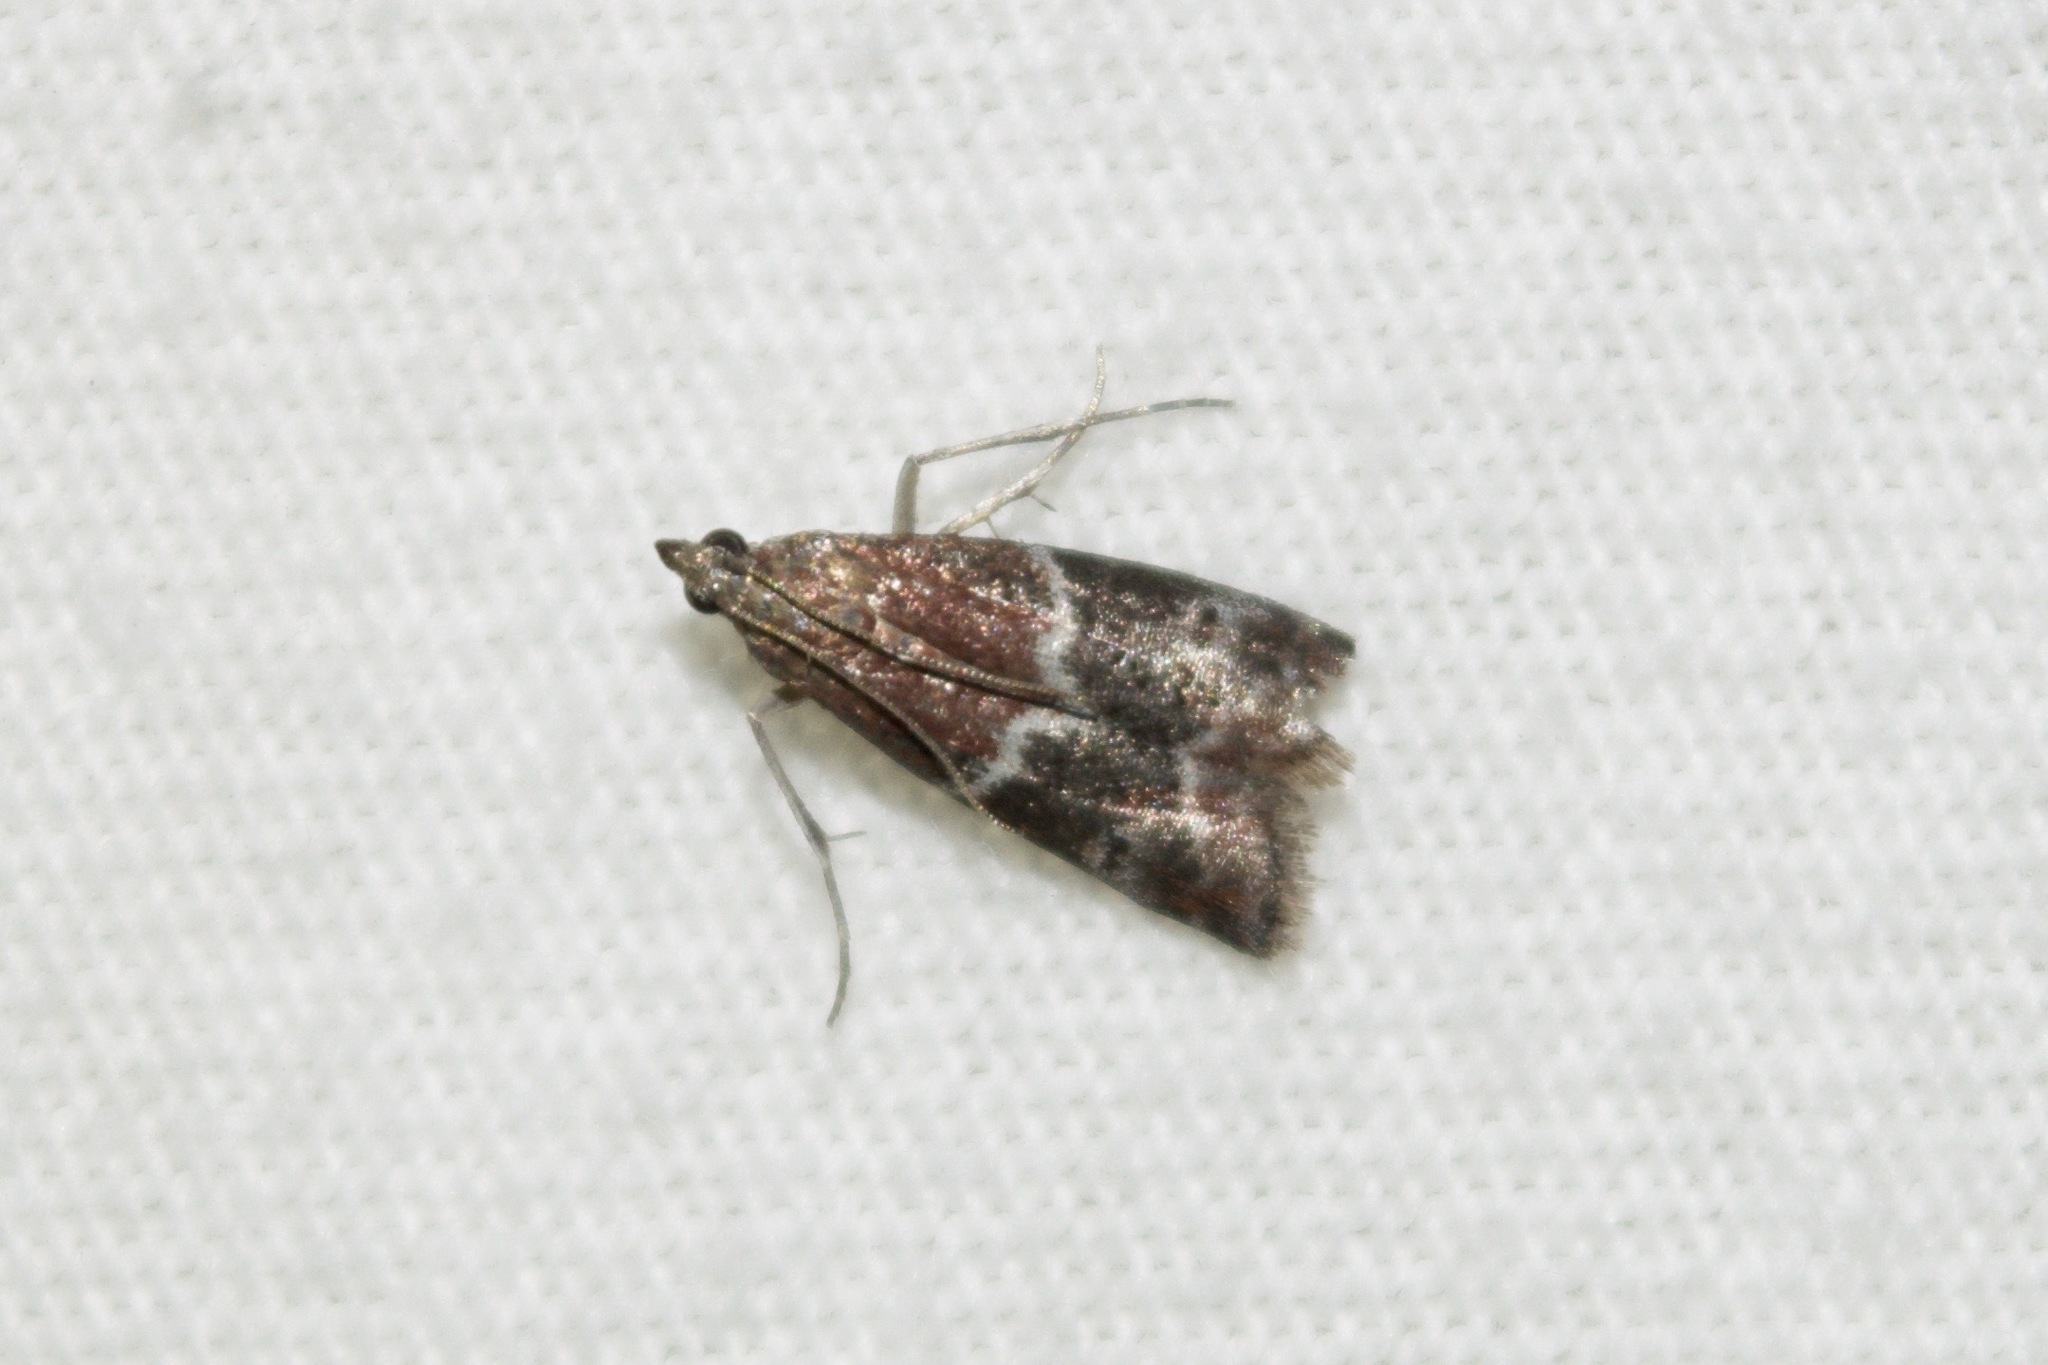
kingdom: Animalia
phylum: Arthropoda
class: Insecta
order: Lepidoptera
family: Pyralidae
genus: Euzophera
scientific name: Euzophera ostricolorella
